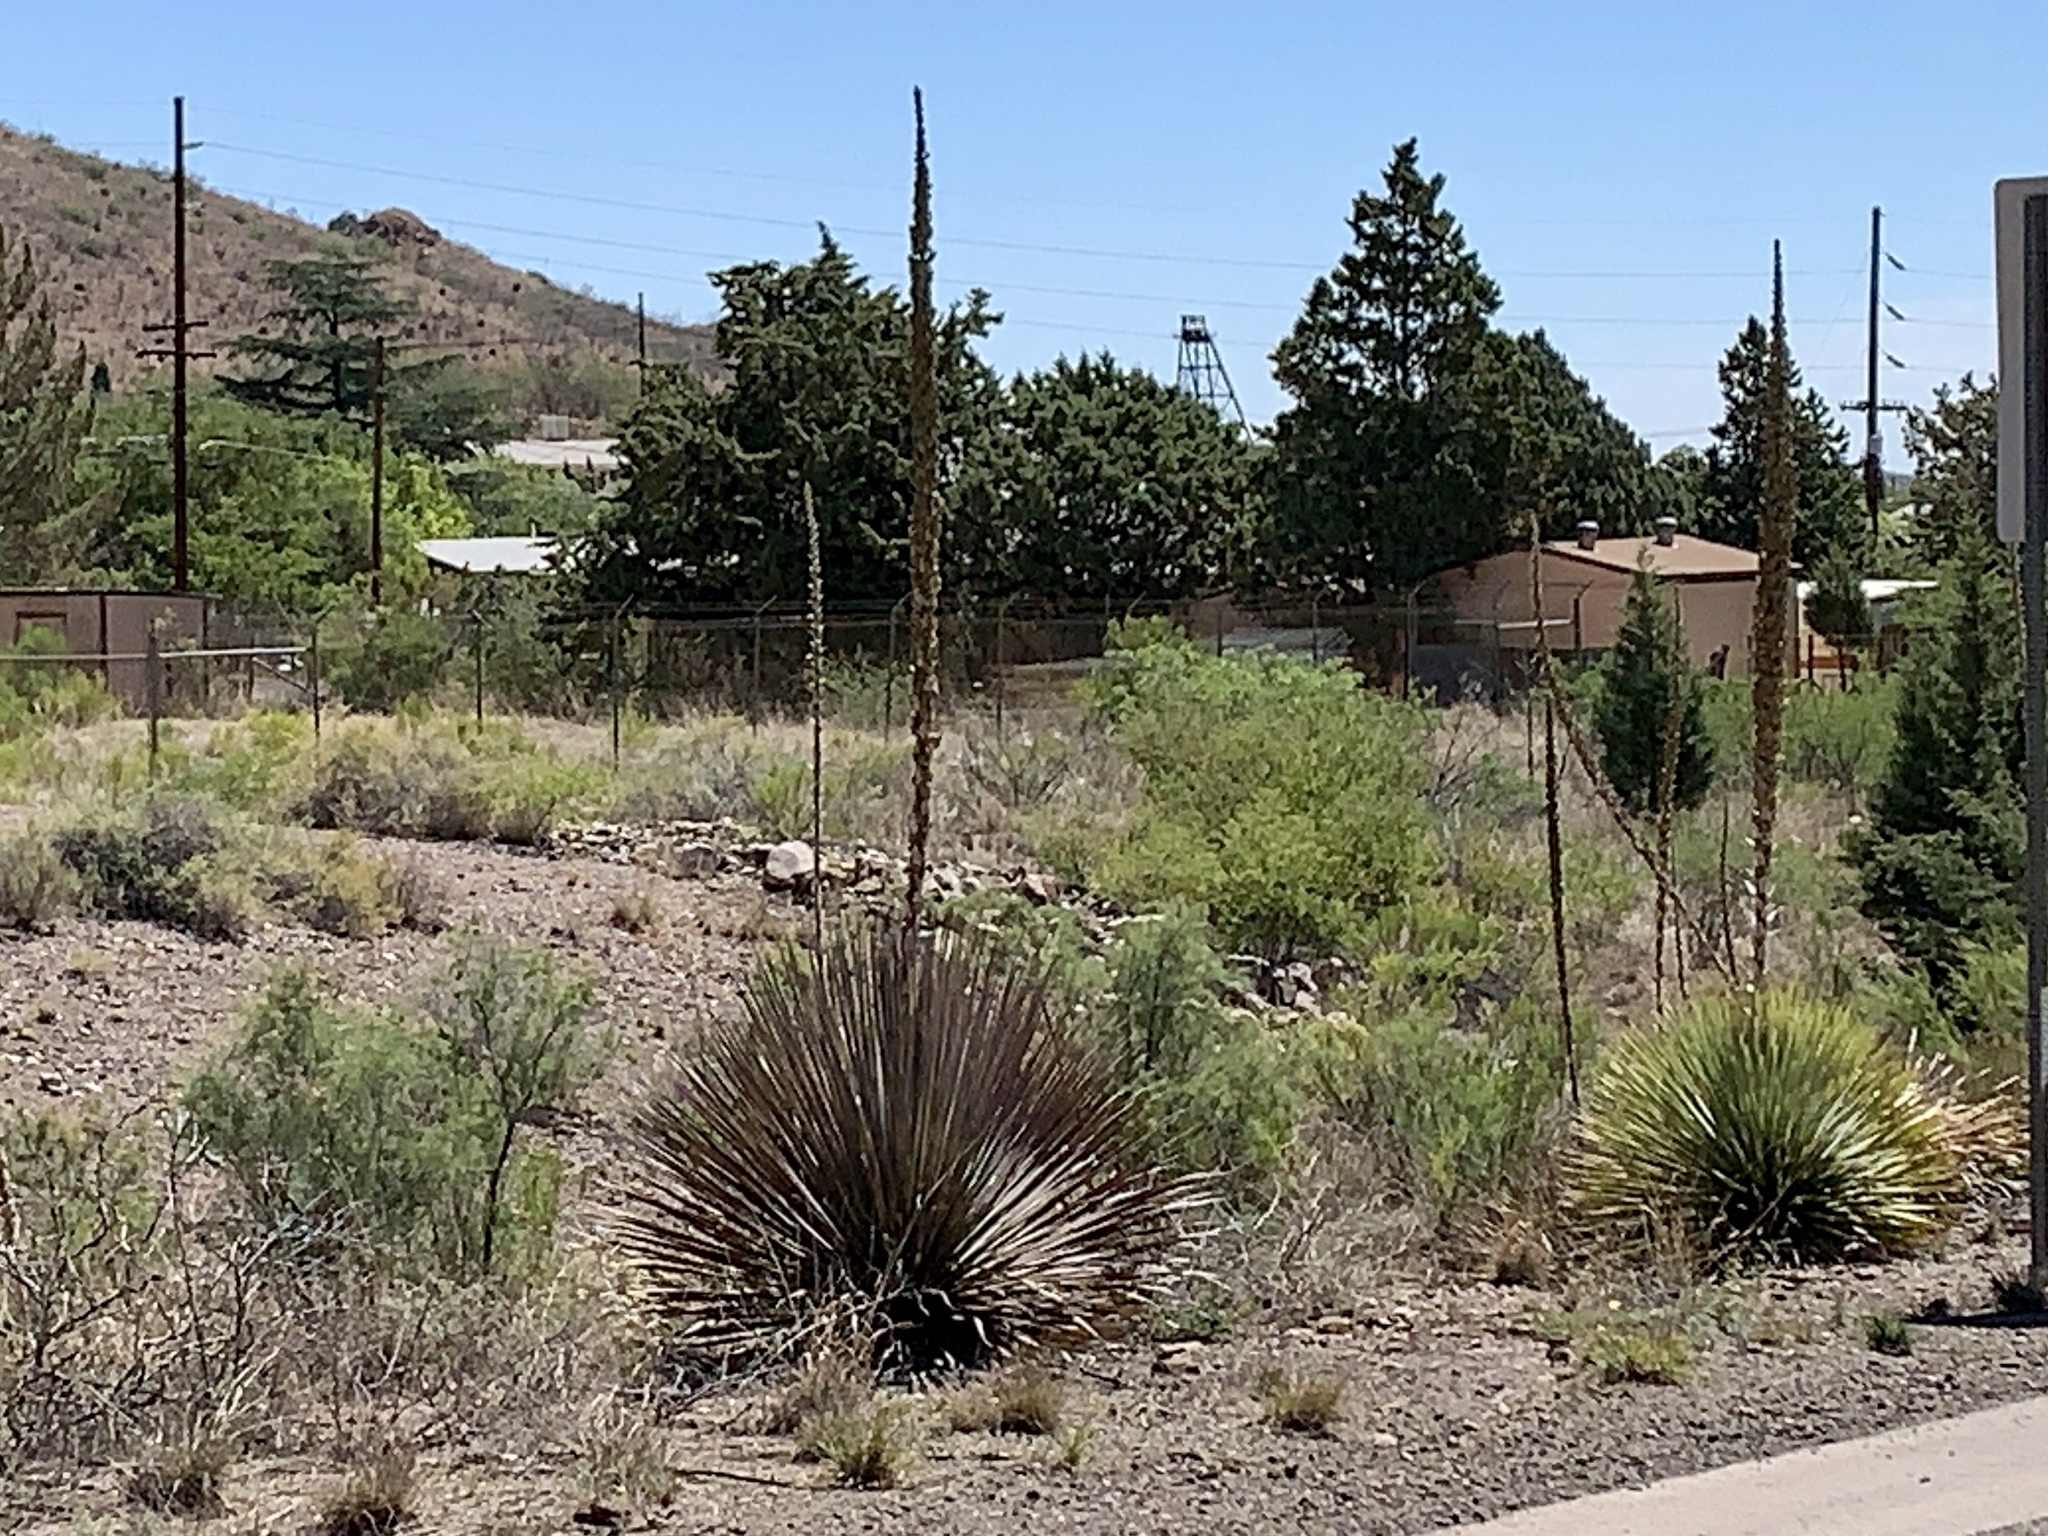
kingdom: Plantae
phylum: Tracheophyta
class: Liliopsida
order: Asparagales
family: Asparagaceae
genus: Dasylirion
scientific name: Dasylirion wheeleri
